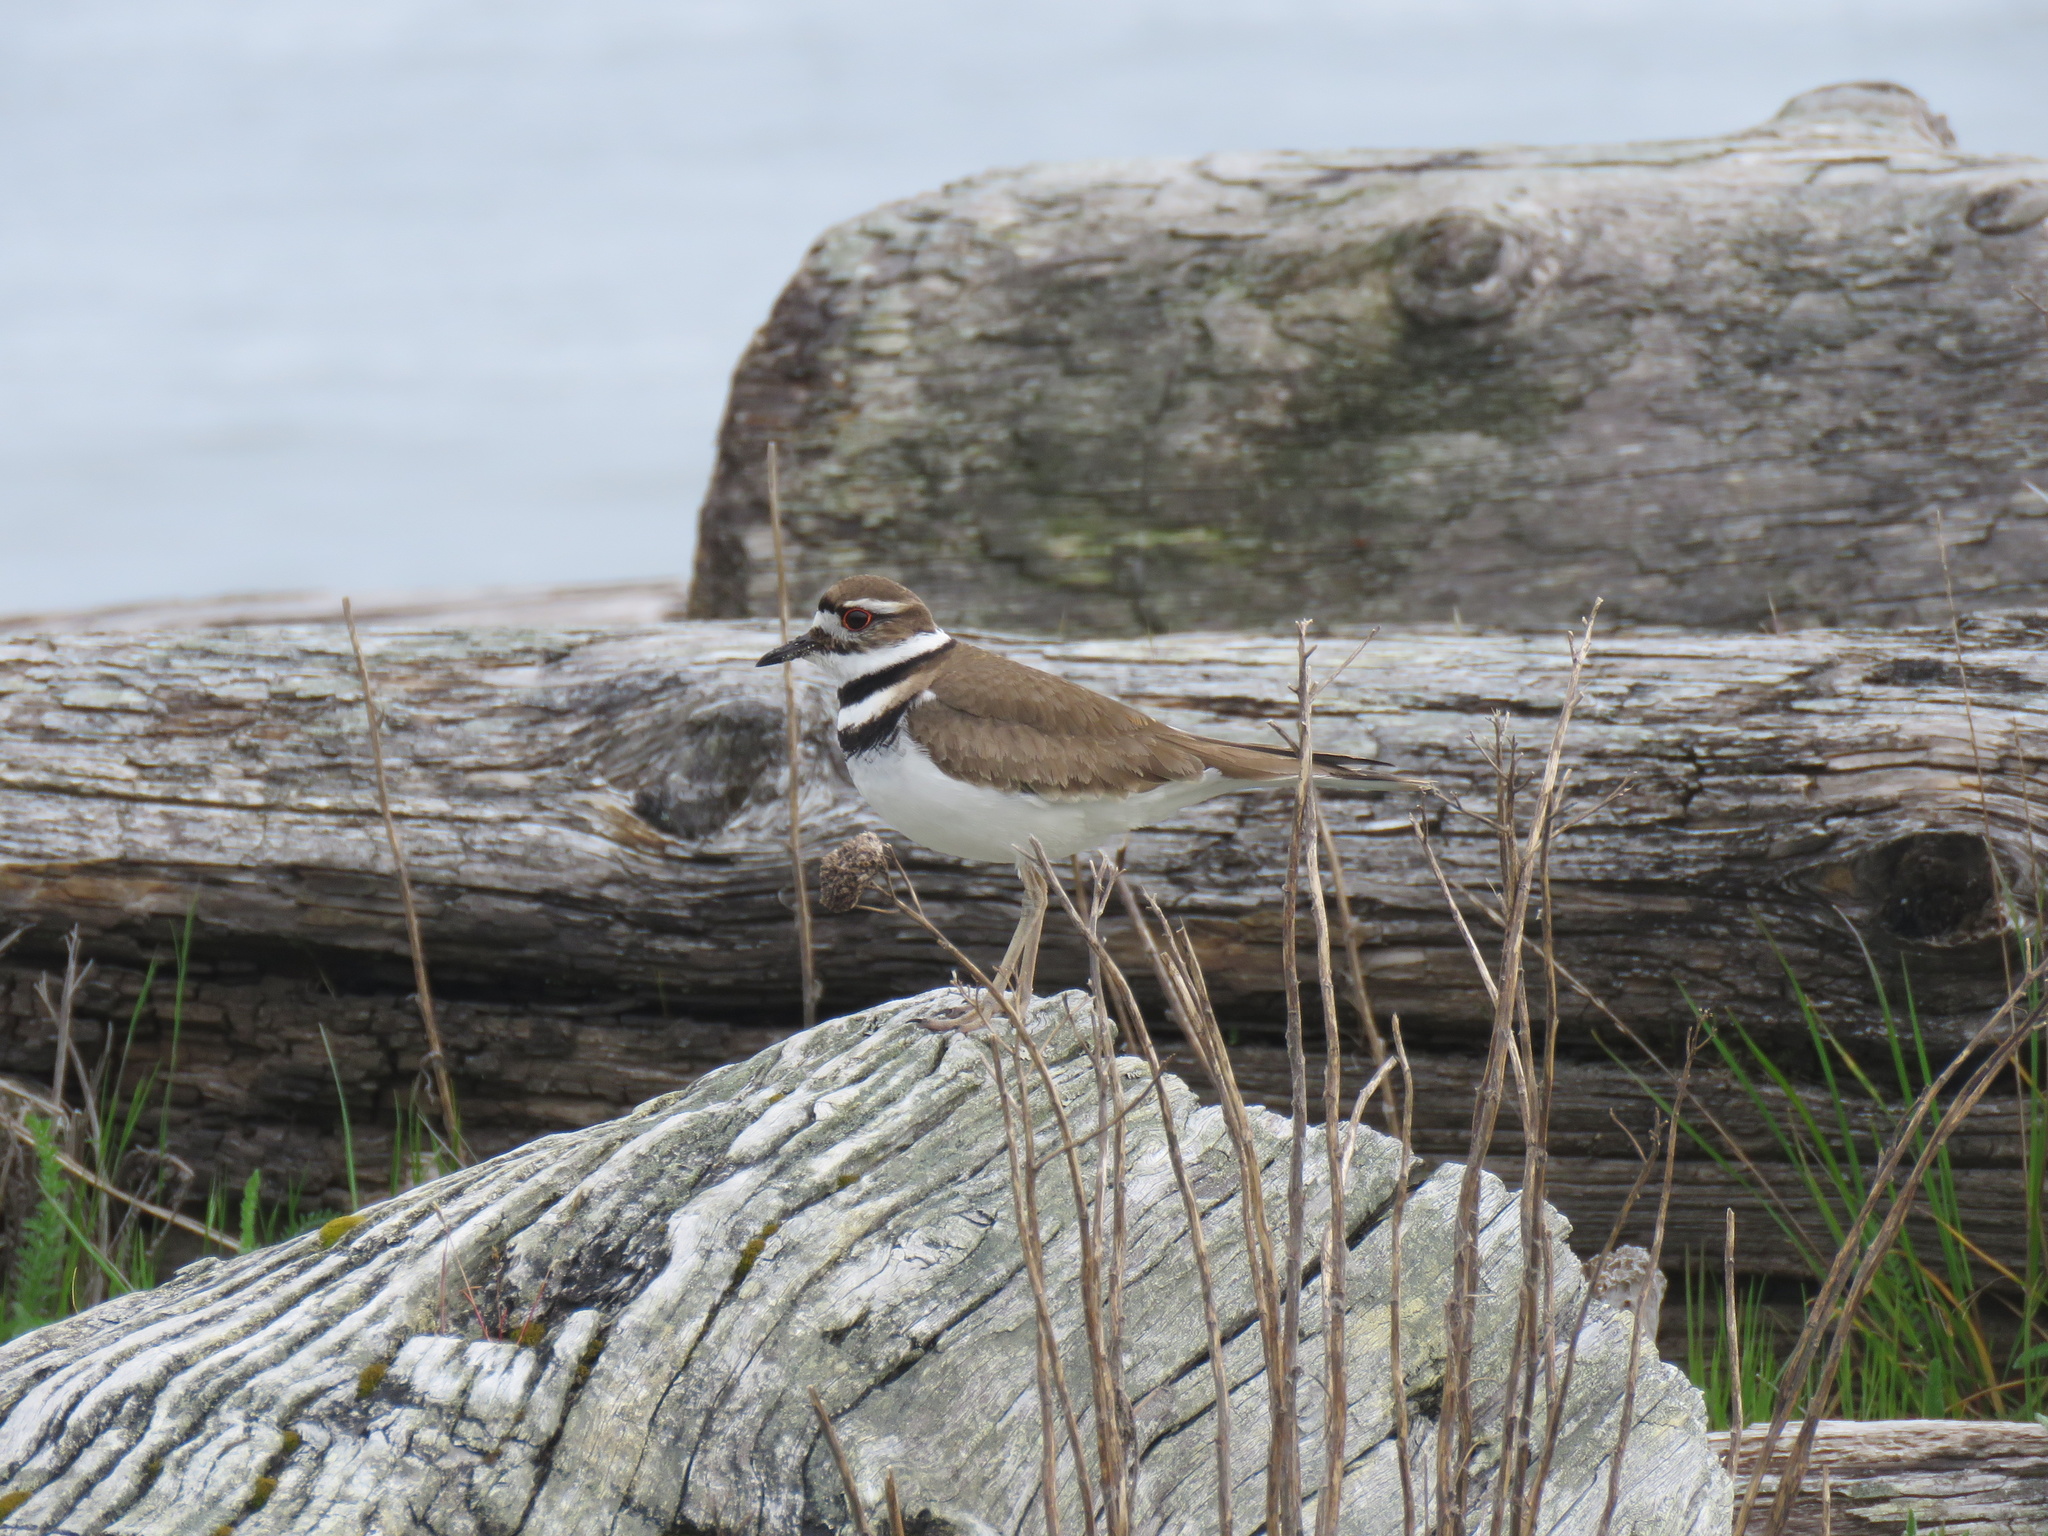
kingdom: Animalia
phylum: Chordata
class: Aves
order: Charadriiformes
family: Charadriidae
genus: Charadrius
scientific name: Charadrius vociferus
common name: Killdeer
